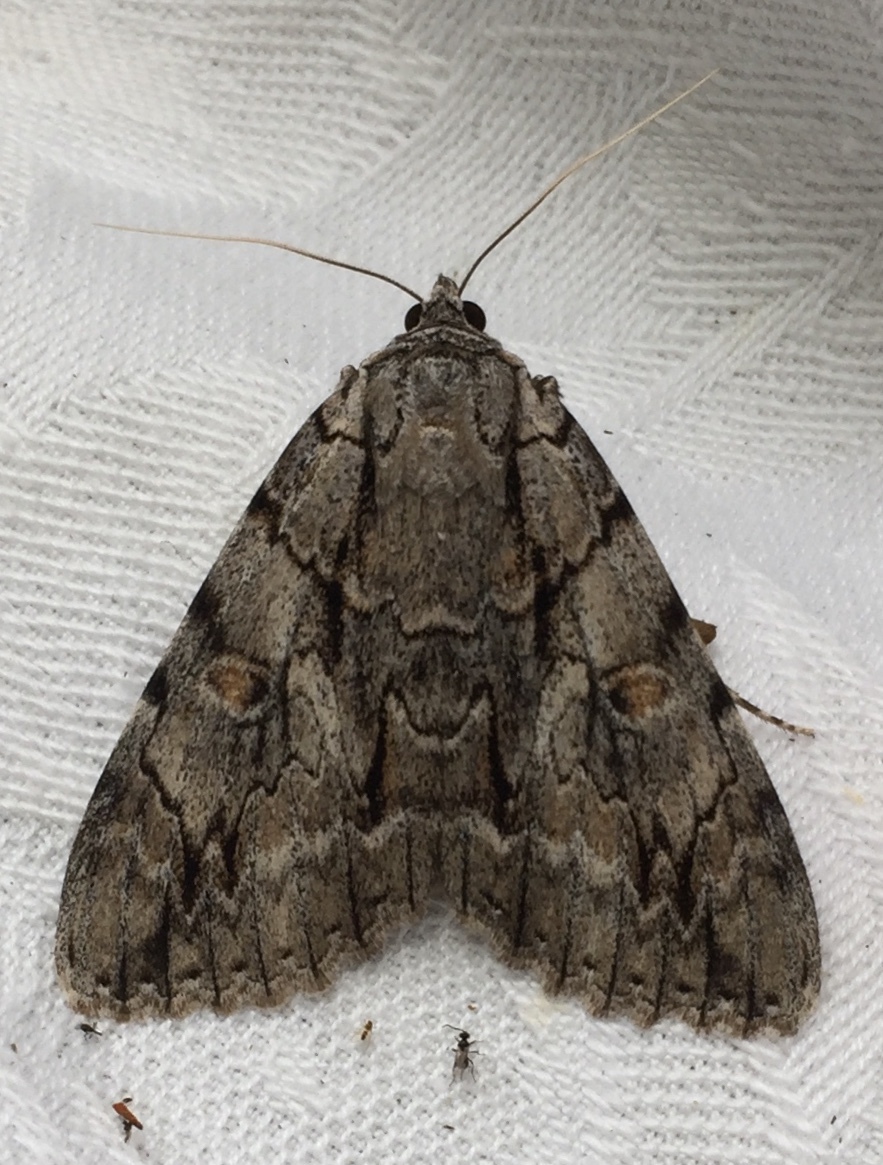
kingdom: Animalia
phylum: Arthropoda
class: Insecta
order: Lepidoptera
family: Erebidae
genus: Catocala
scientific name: Catocala retecta
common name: Yellow-gray underwing
